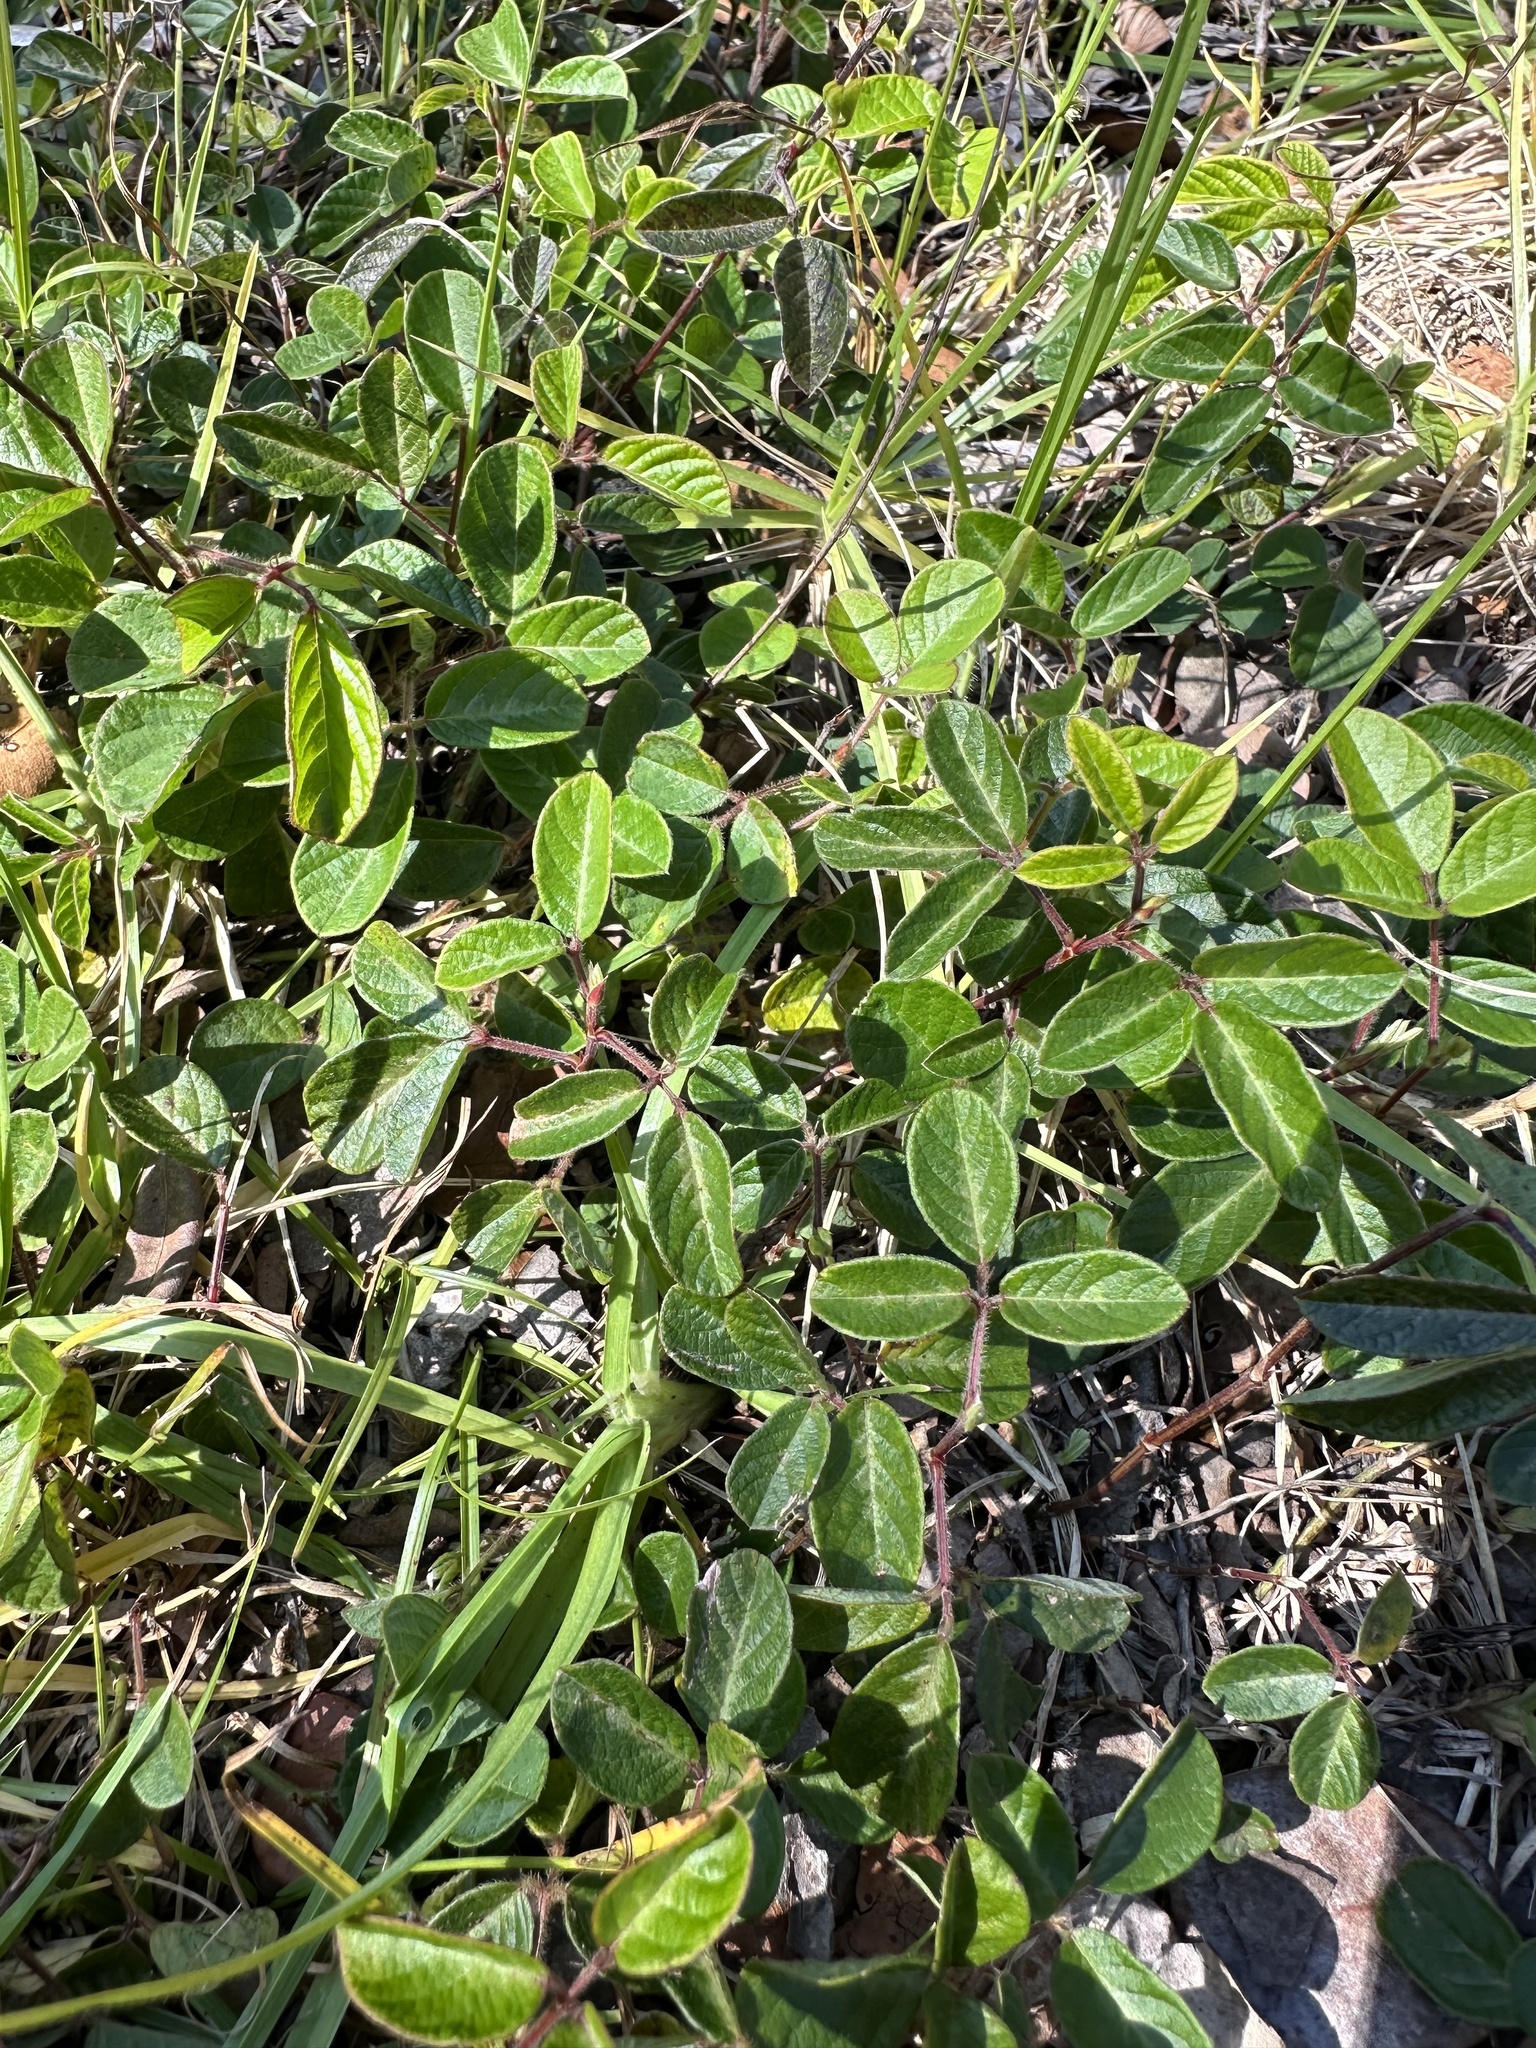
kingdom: Plantae
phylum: Tracheophyta
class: Magnoliopsida
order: Fabales
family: Fabaceae
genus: Desmodium
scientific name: Desmodium incanum
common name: Tickclover
